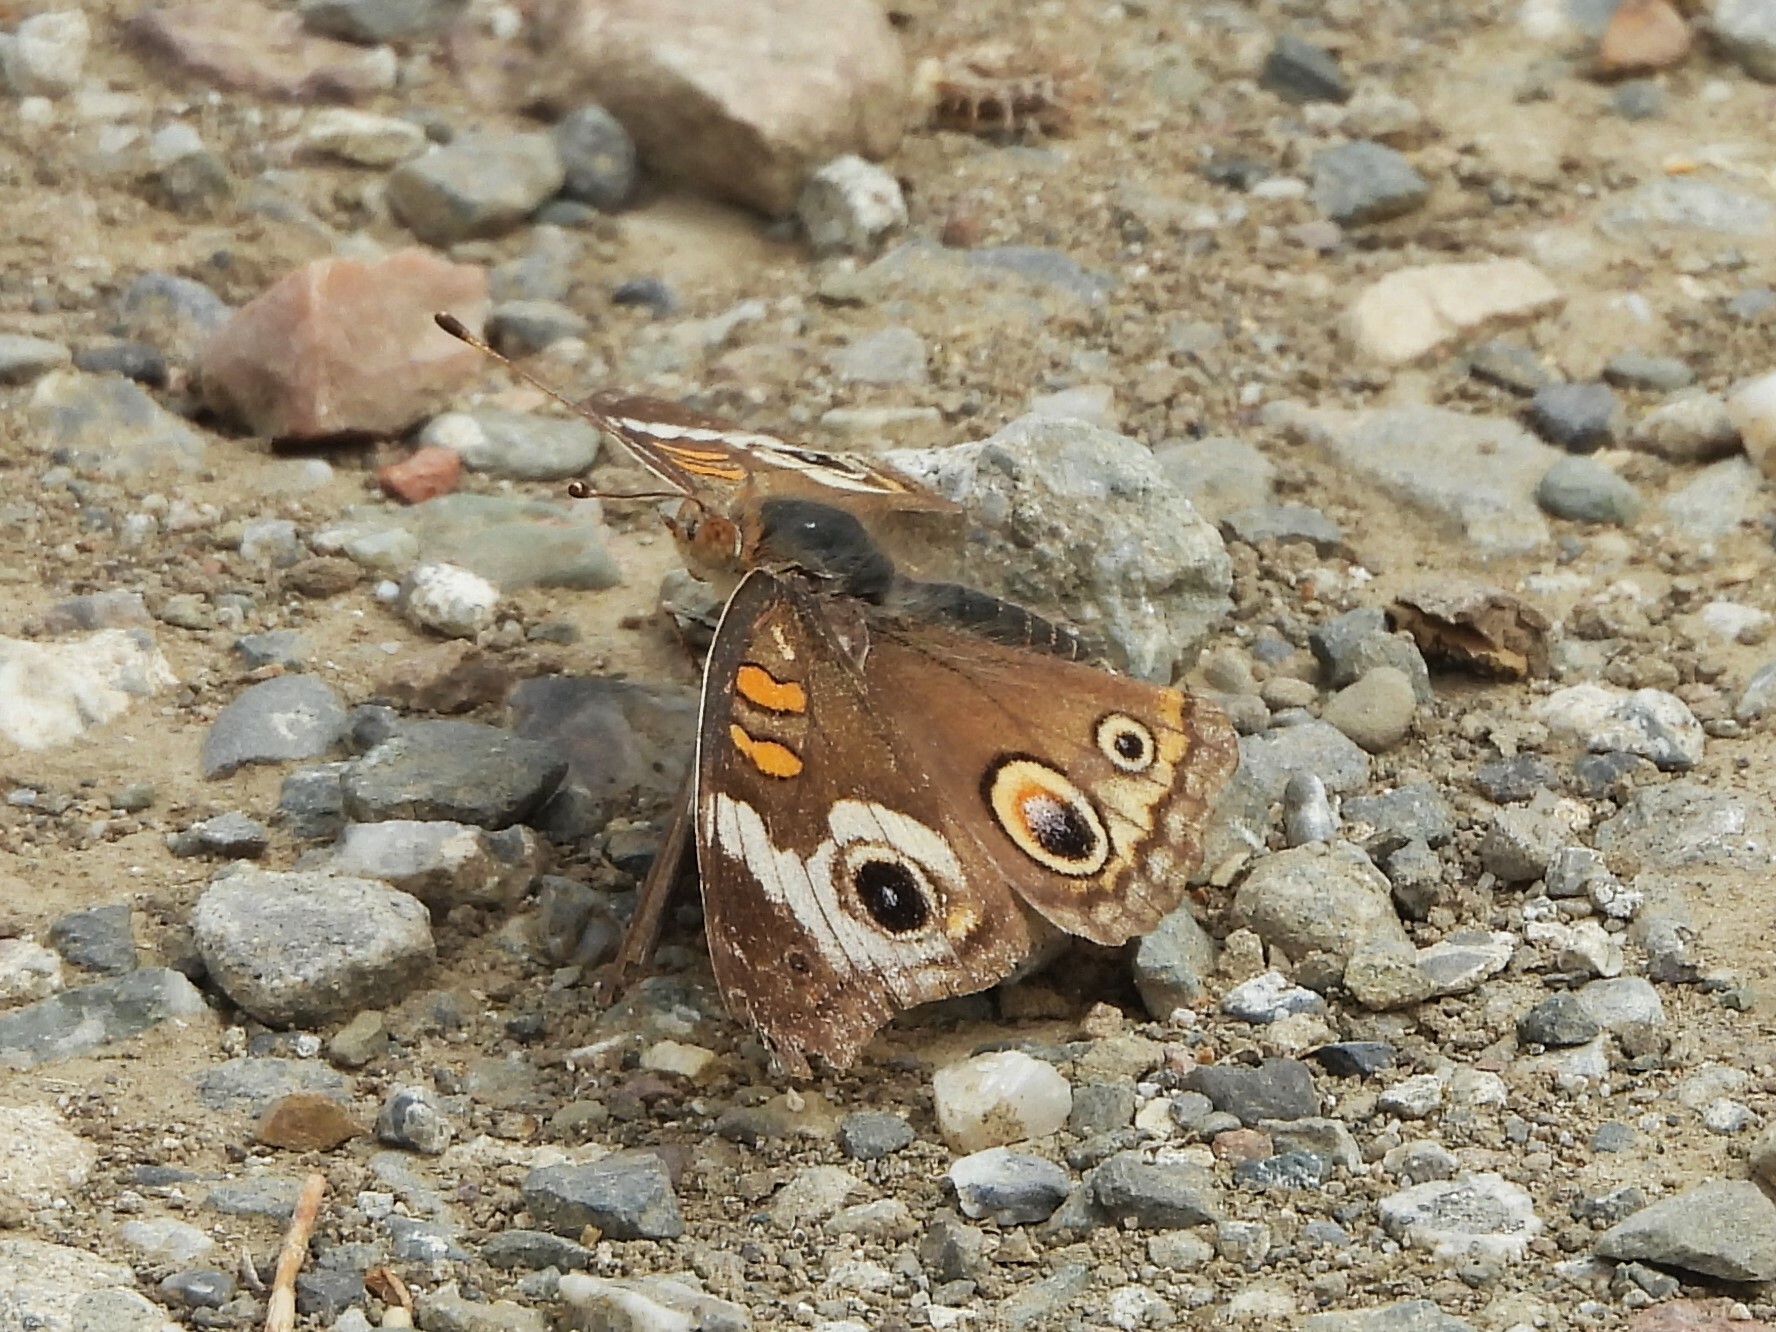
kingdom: Animalia
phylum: Arthropoda
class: Insecta
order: Lepidoptera
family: Nymphalidae
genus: Junonia
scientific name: Junonia grisea
